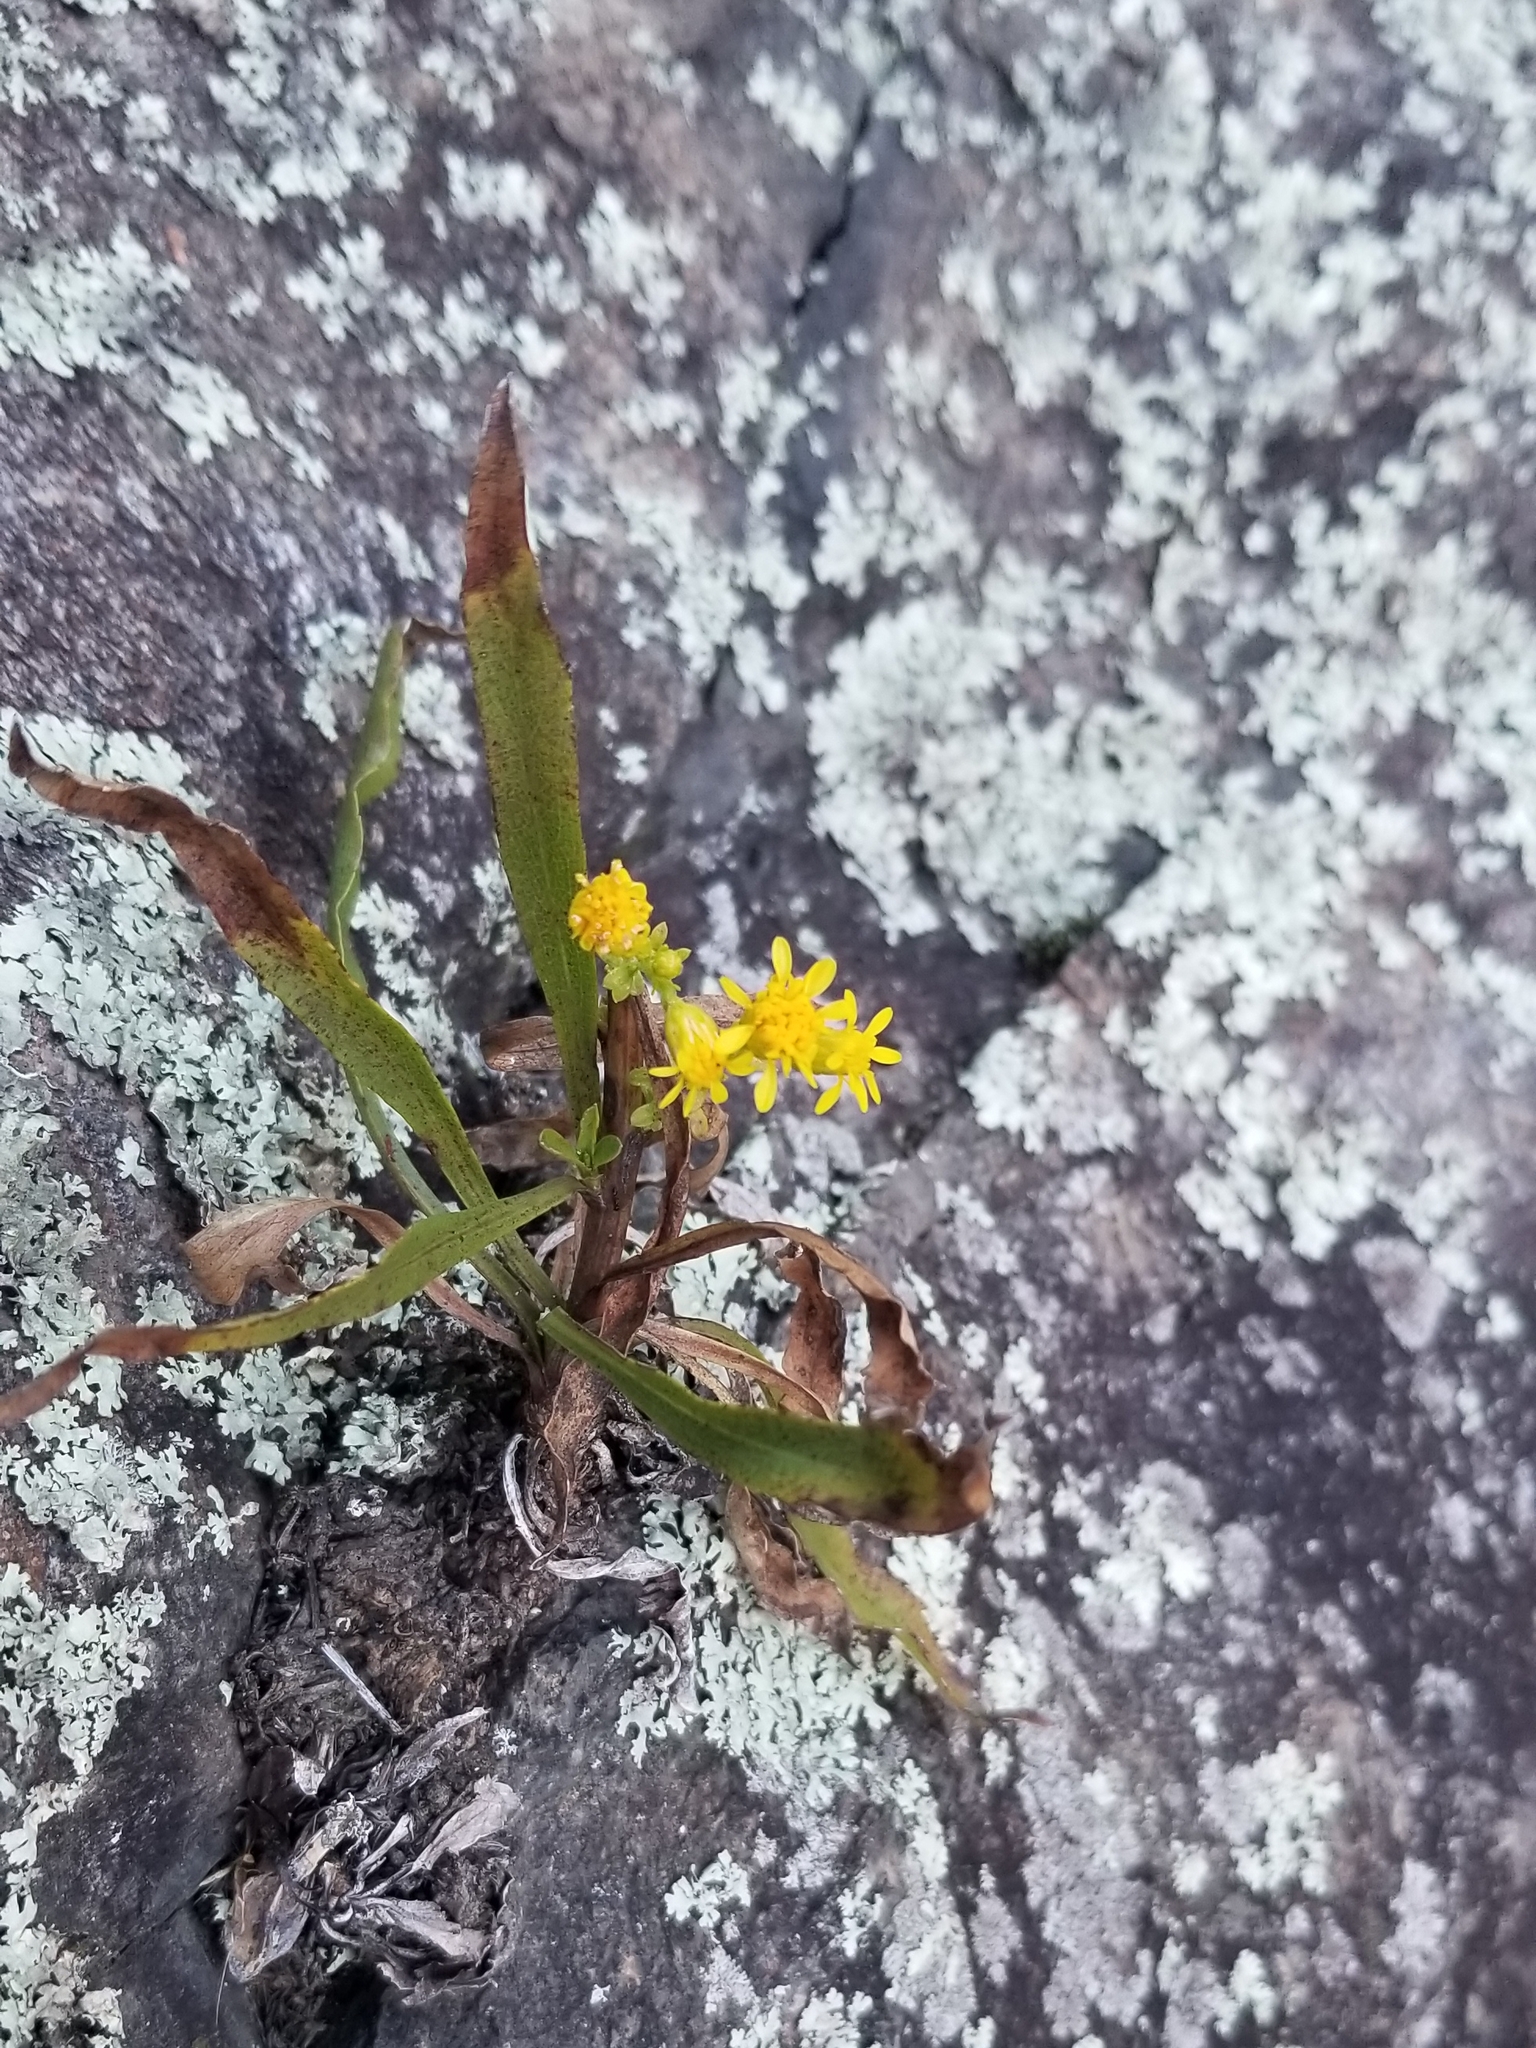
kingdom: Plantae
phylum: Tracheophyta
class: Magnoliopsida
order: Asterales
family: Asteraceae
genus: Solidago
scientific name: Solidago racemosa
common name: Lake ontario goldenrod
